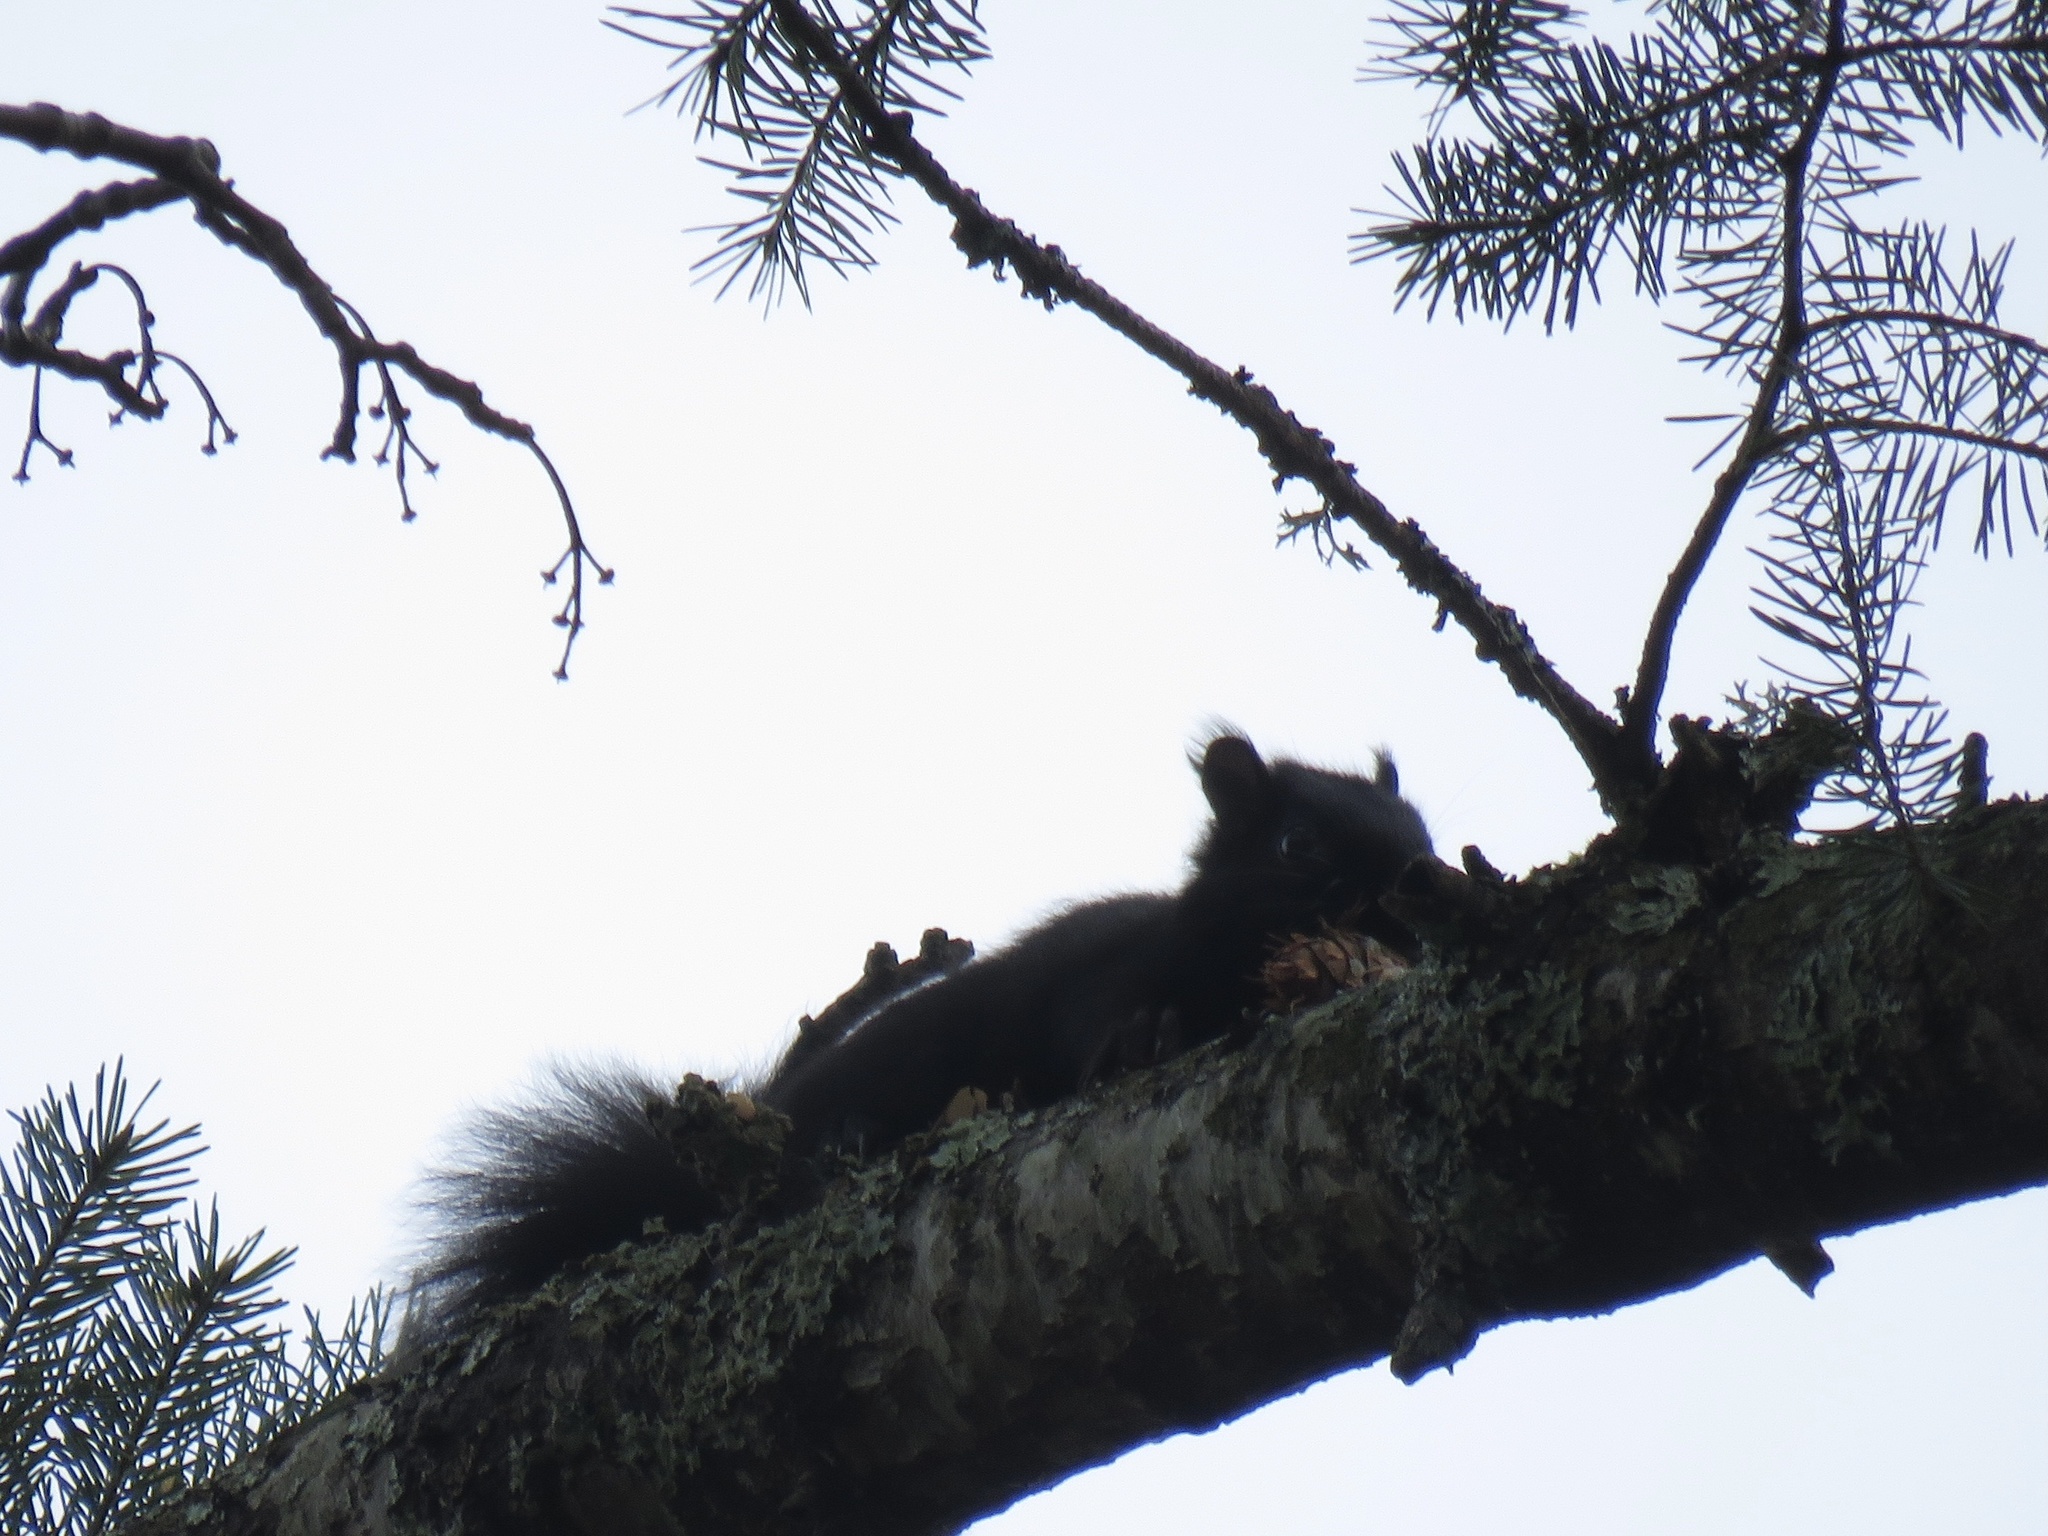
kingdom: Animalia
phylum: Chordata
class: Mammalia
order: Rodentia
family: Sciuridae
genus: Sciurus
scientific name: Sciurus carolinensis
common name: Eastern gray squirrel
